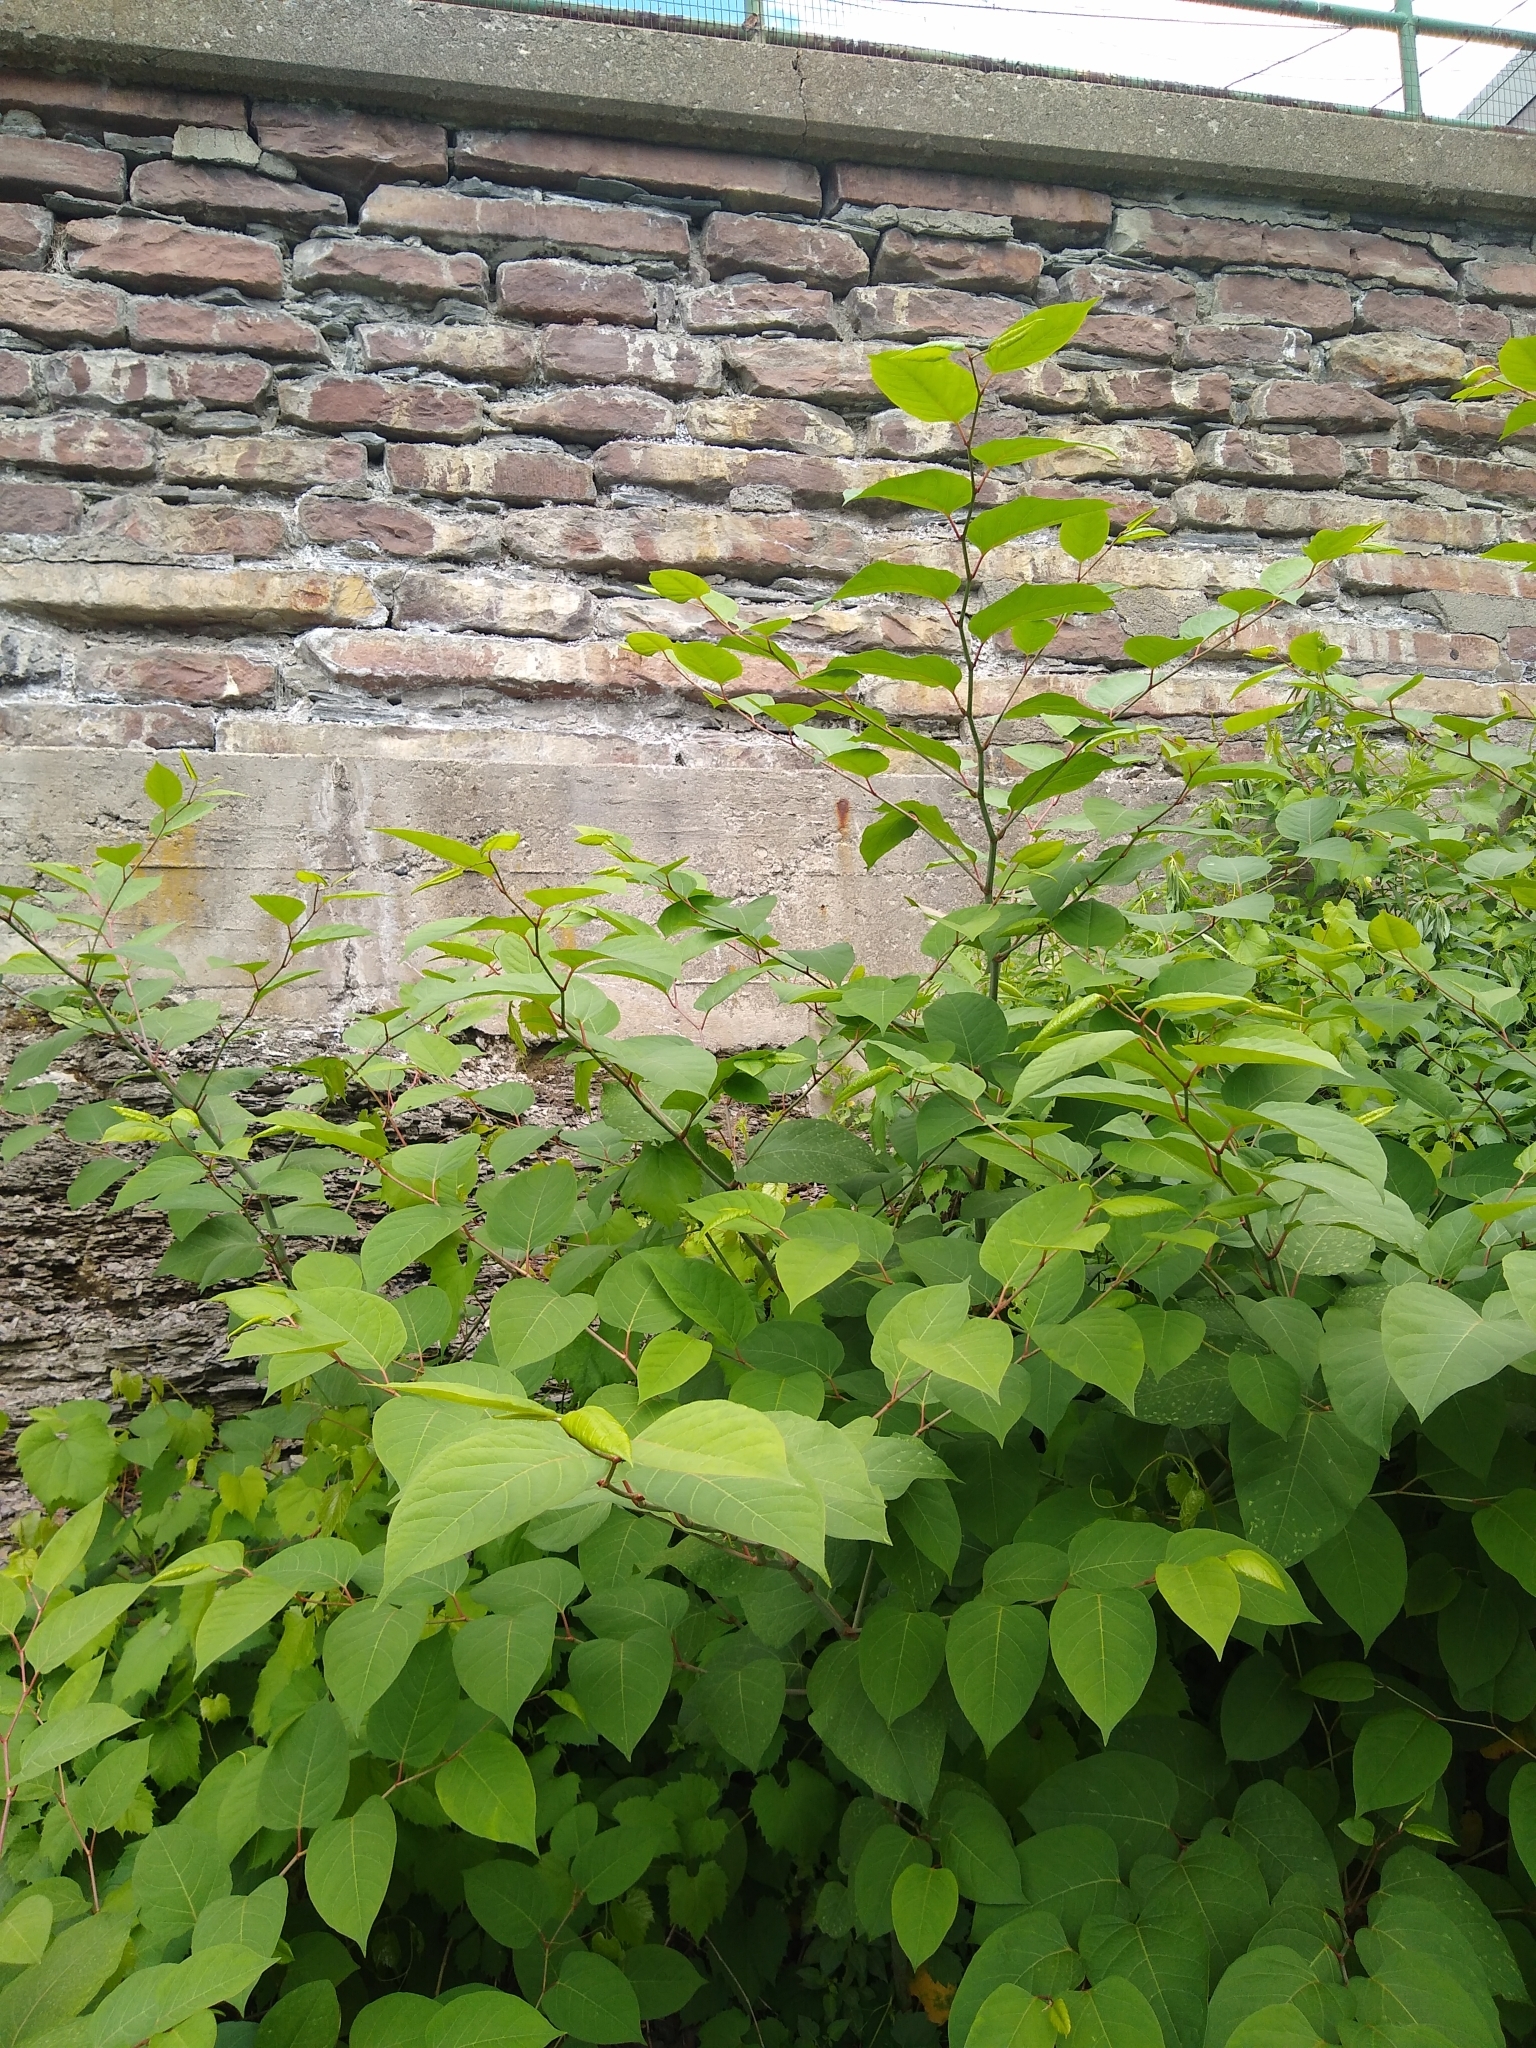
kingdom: Plantae
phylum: Tracheophyta
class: Magnoliopsida
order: Caryophyllales
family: Polygonaceae
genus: Reynoutria
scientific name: Reynoutria japonica
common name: Japanese knotweed
